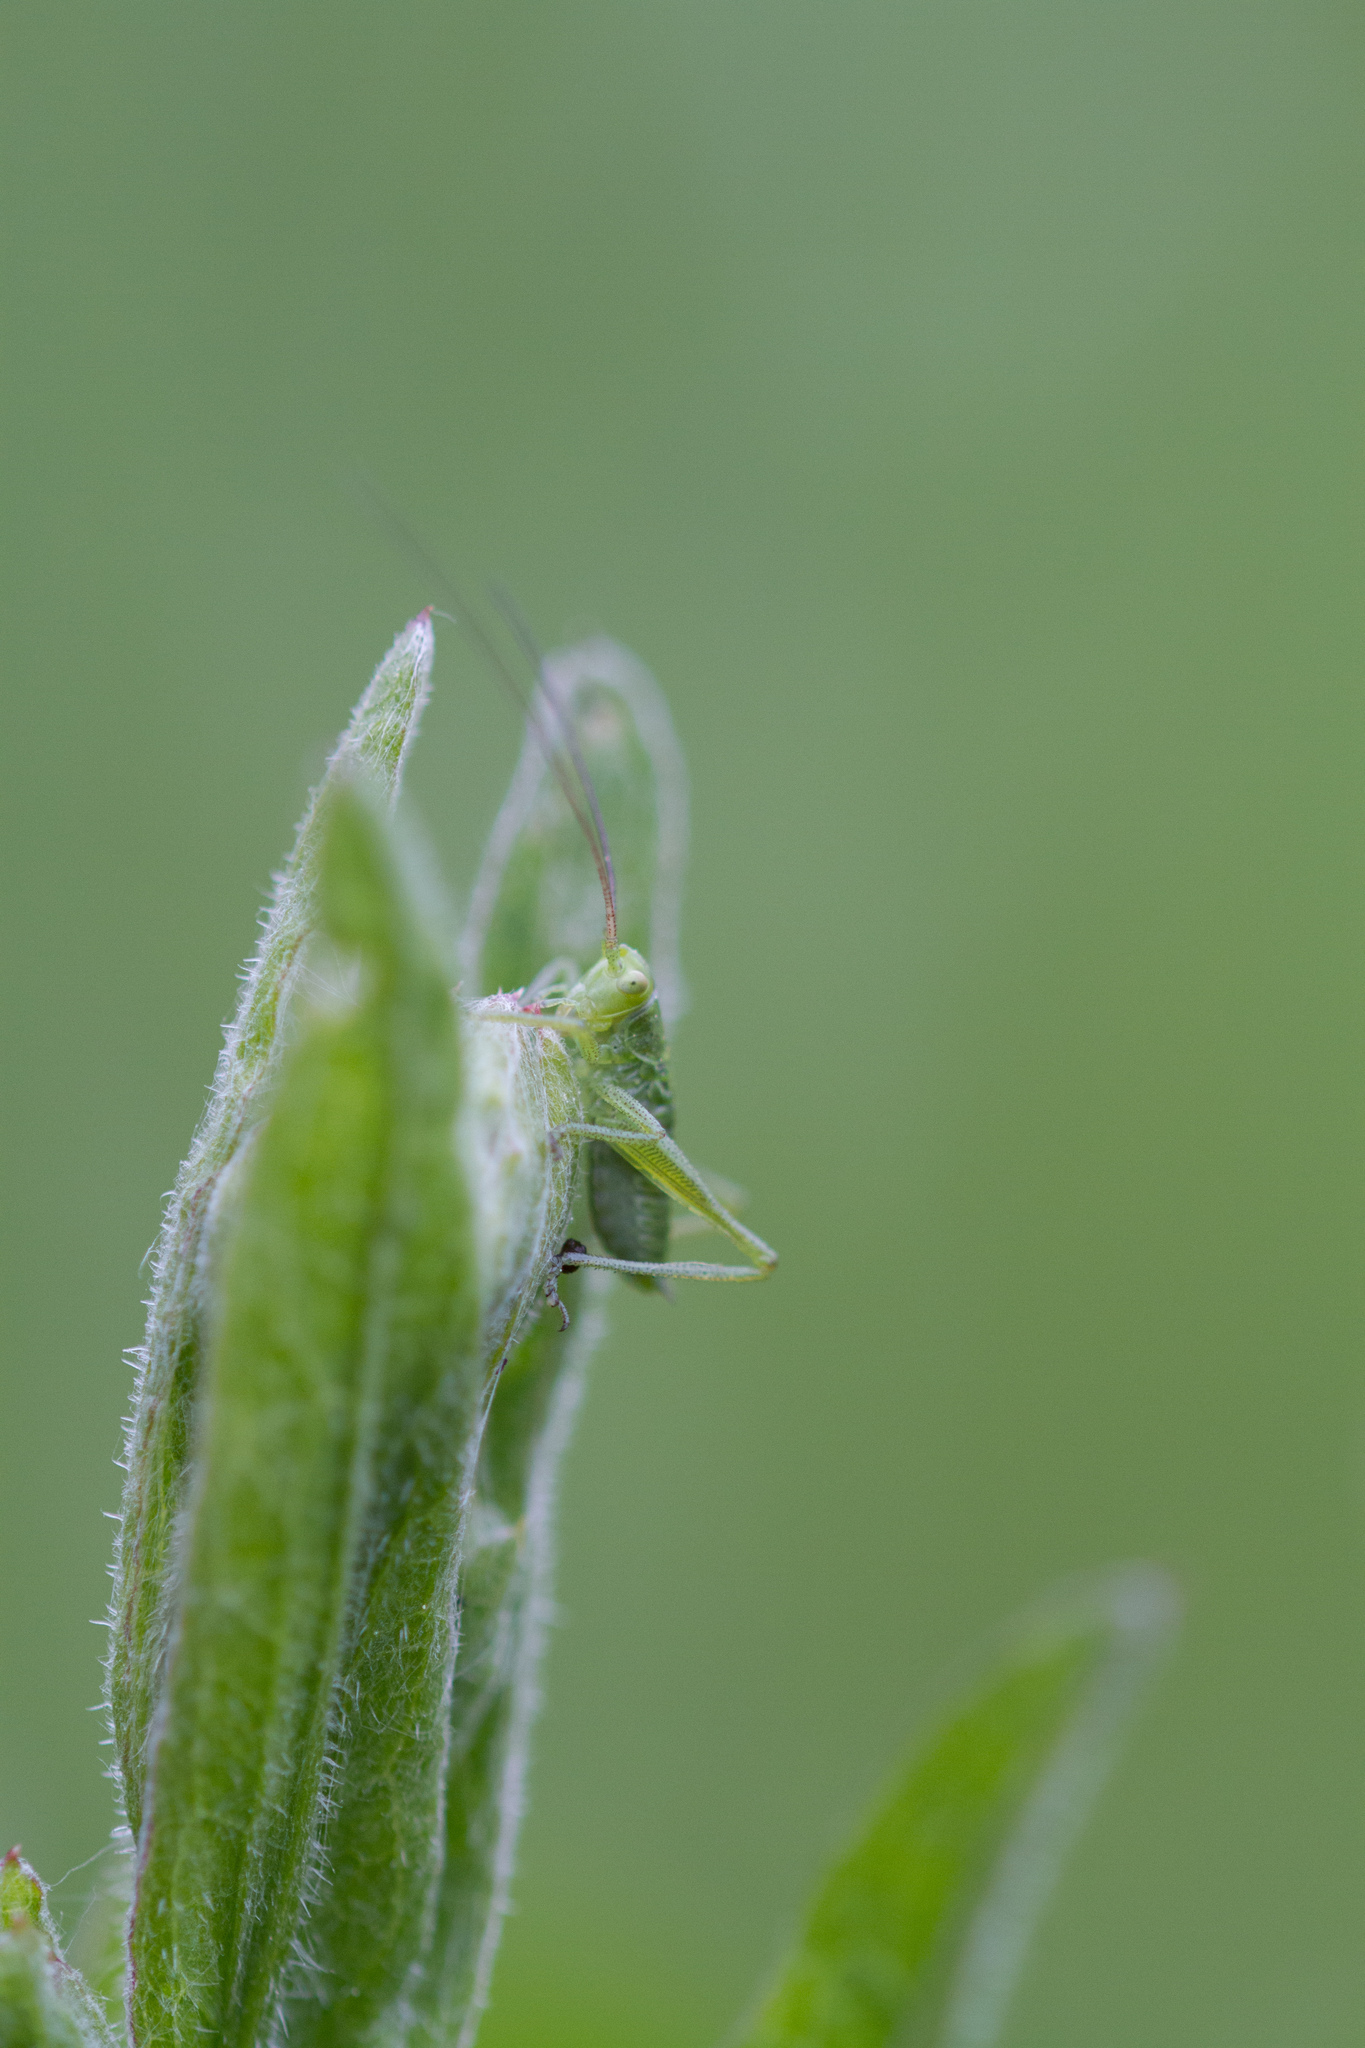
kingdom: Animalia
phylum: Arthropoda
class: Insecta
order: Orthoptera
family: Tettigoniidae
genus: Tettigonia
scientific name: Tettigonia viridissima
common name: Great green bush-cricket
